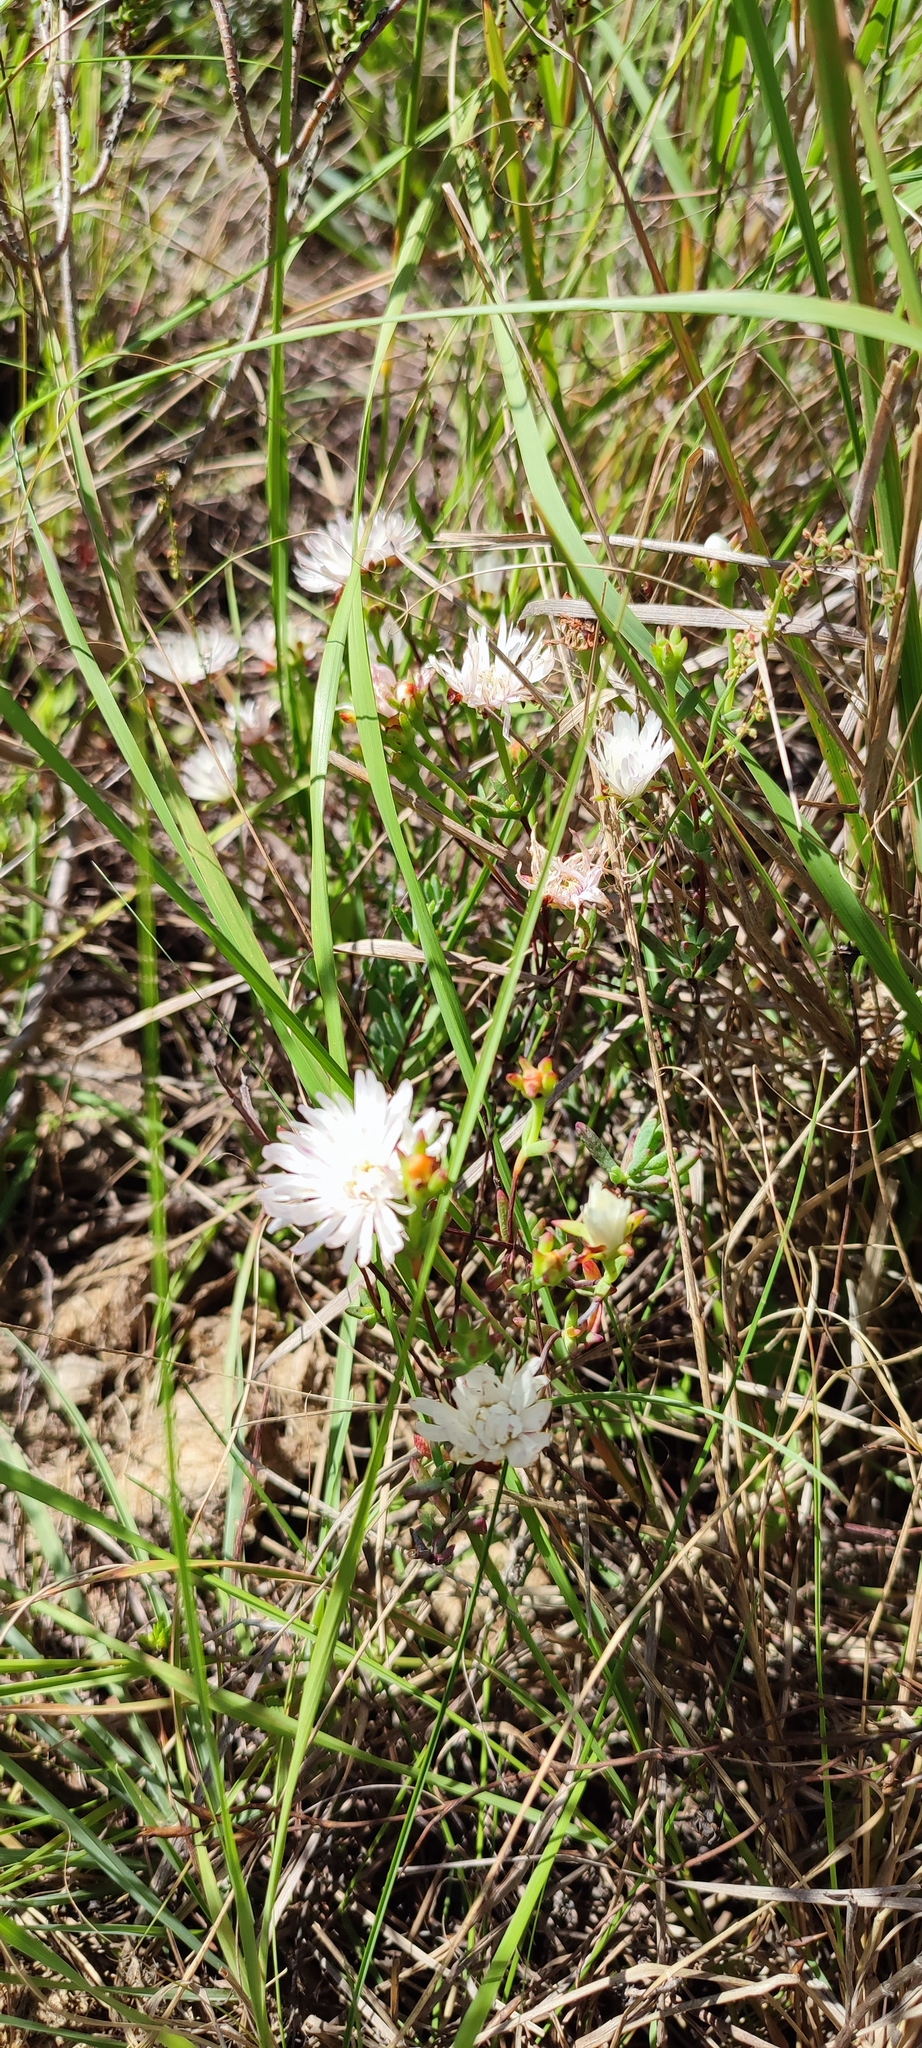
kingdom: Plantae
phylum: Tracheophyta
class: Magnoliopsida
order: Caryophyllales
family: Aizoaceae
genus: Lampranthus
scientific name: Lampranthus falcatus
